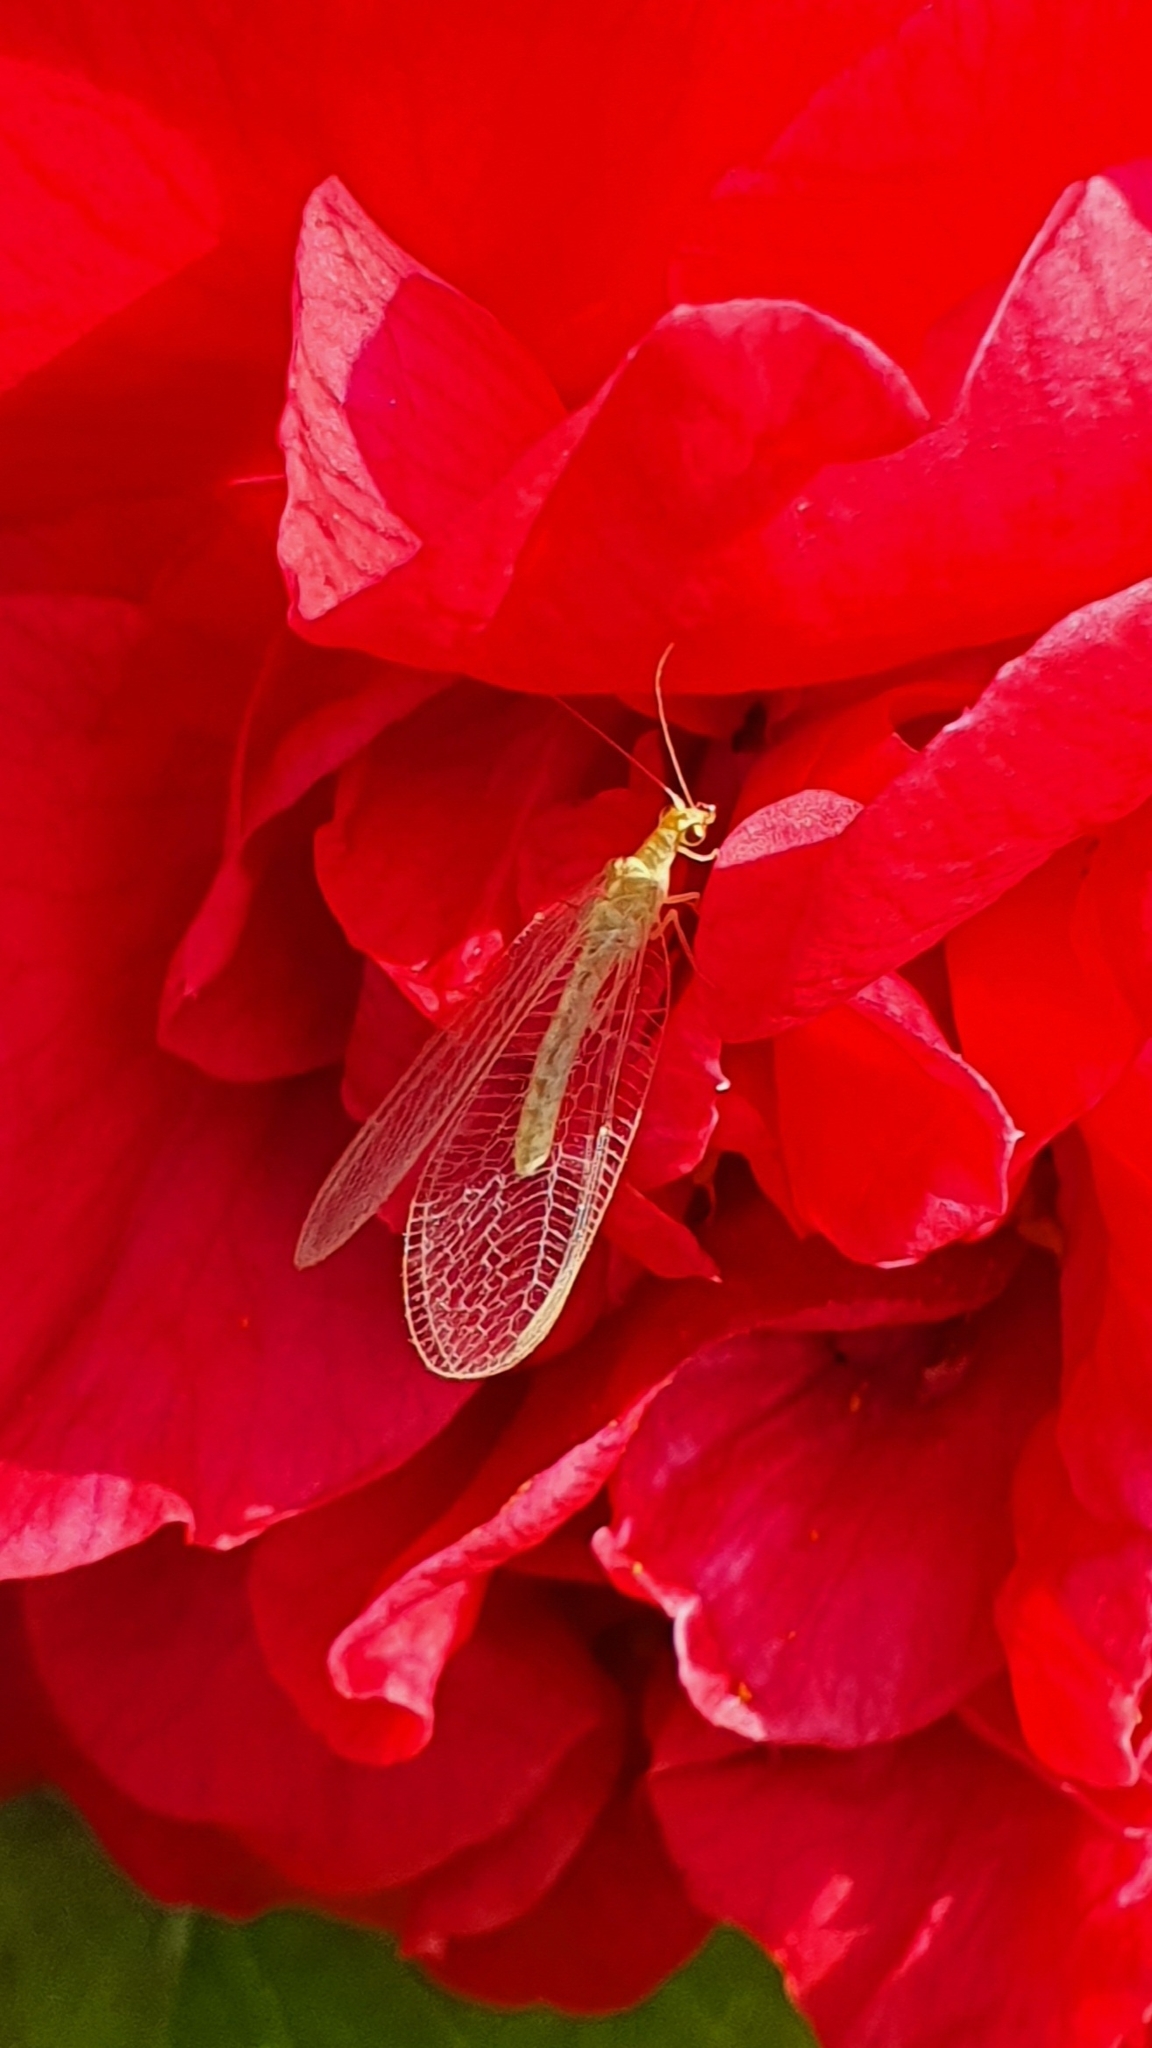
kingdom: Animalia
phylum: Arthropoda
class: Insecta
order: Neuroptera
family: Chrysopidae
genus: Chrysoperla
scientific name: Chrysoperla
